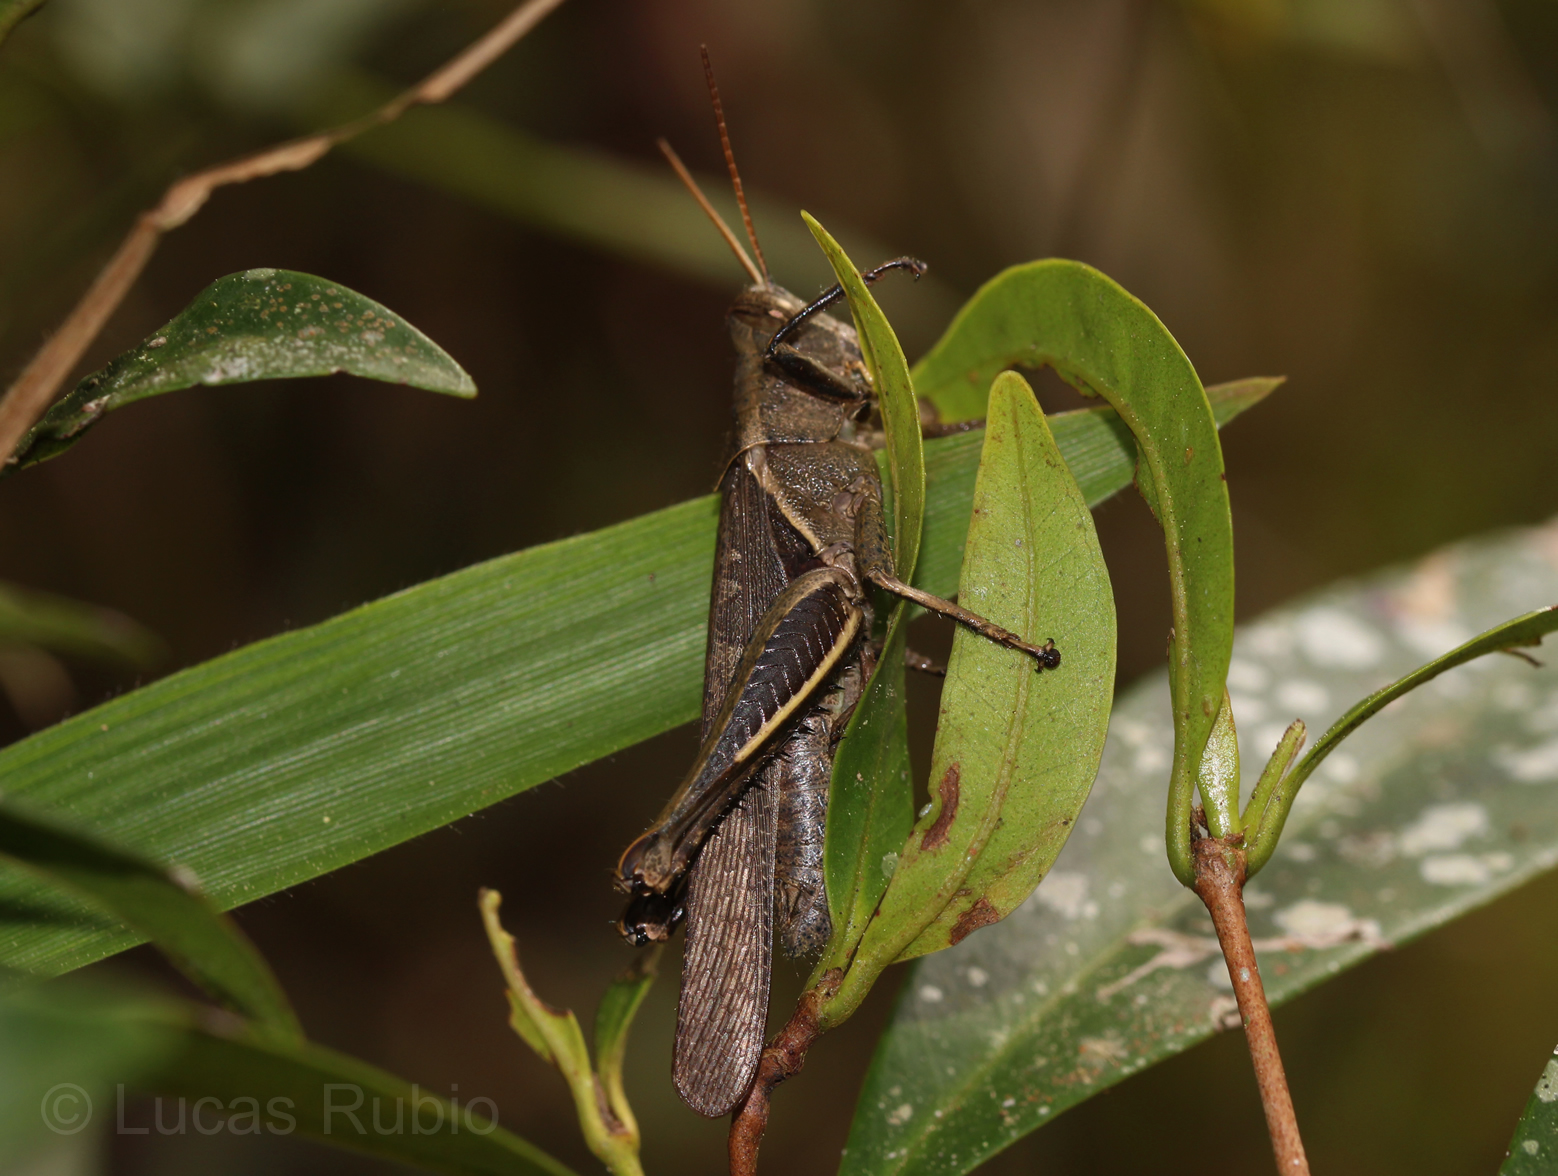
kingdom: Animalia
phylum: Arthropoda
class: Insecta
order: Orthoptera
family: Acrididae
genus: Abracris
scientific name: Abracris flavolineata
